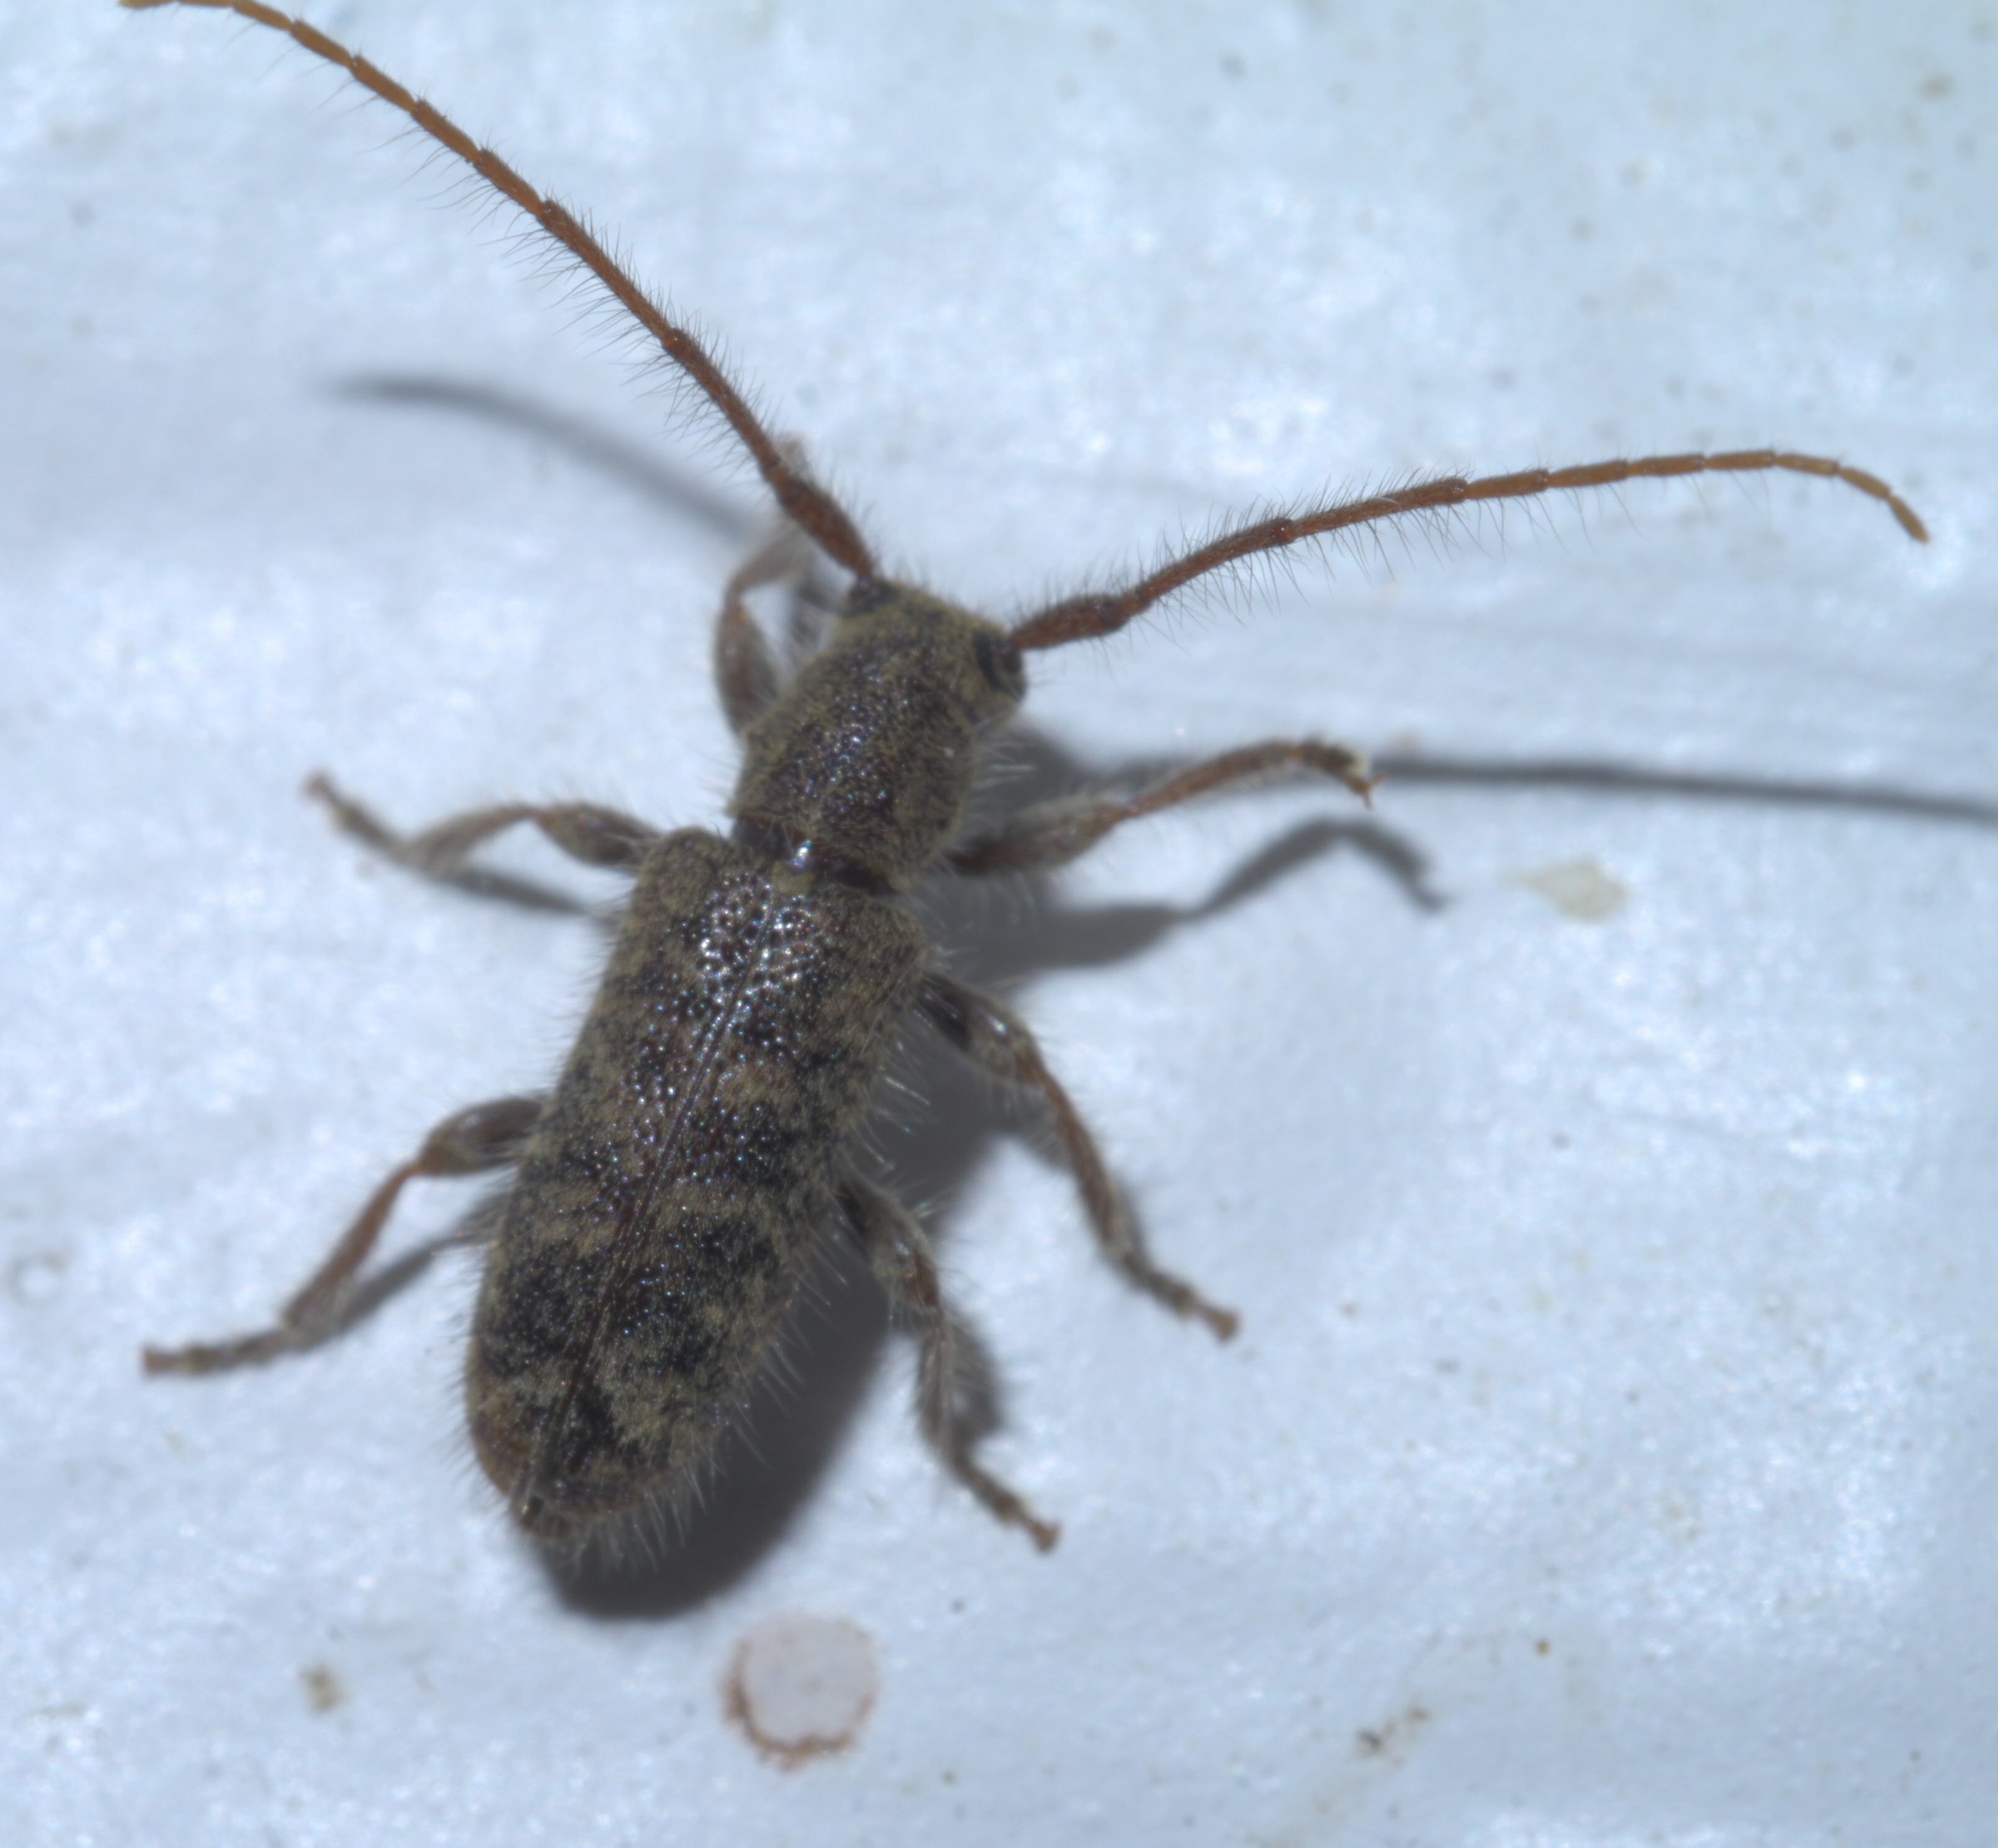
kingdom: Animalia
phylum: Arthropoda
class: Insecta
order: Coleoptera
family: Cerambycidae
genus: Eupogonius
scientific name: Eupogonius pauper
